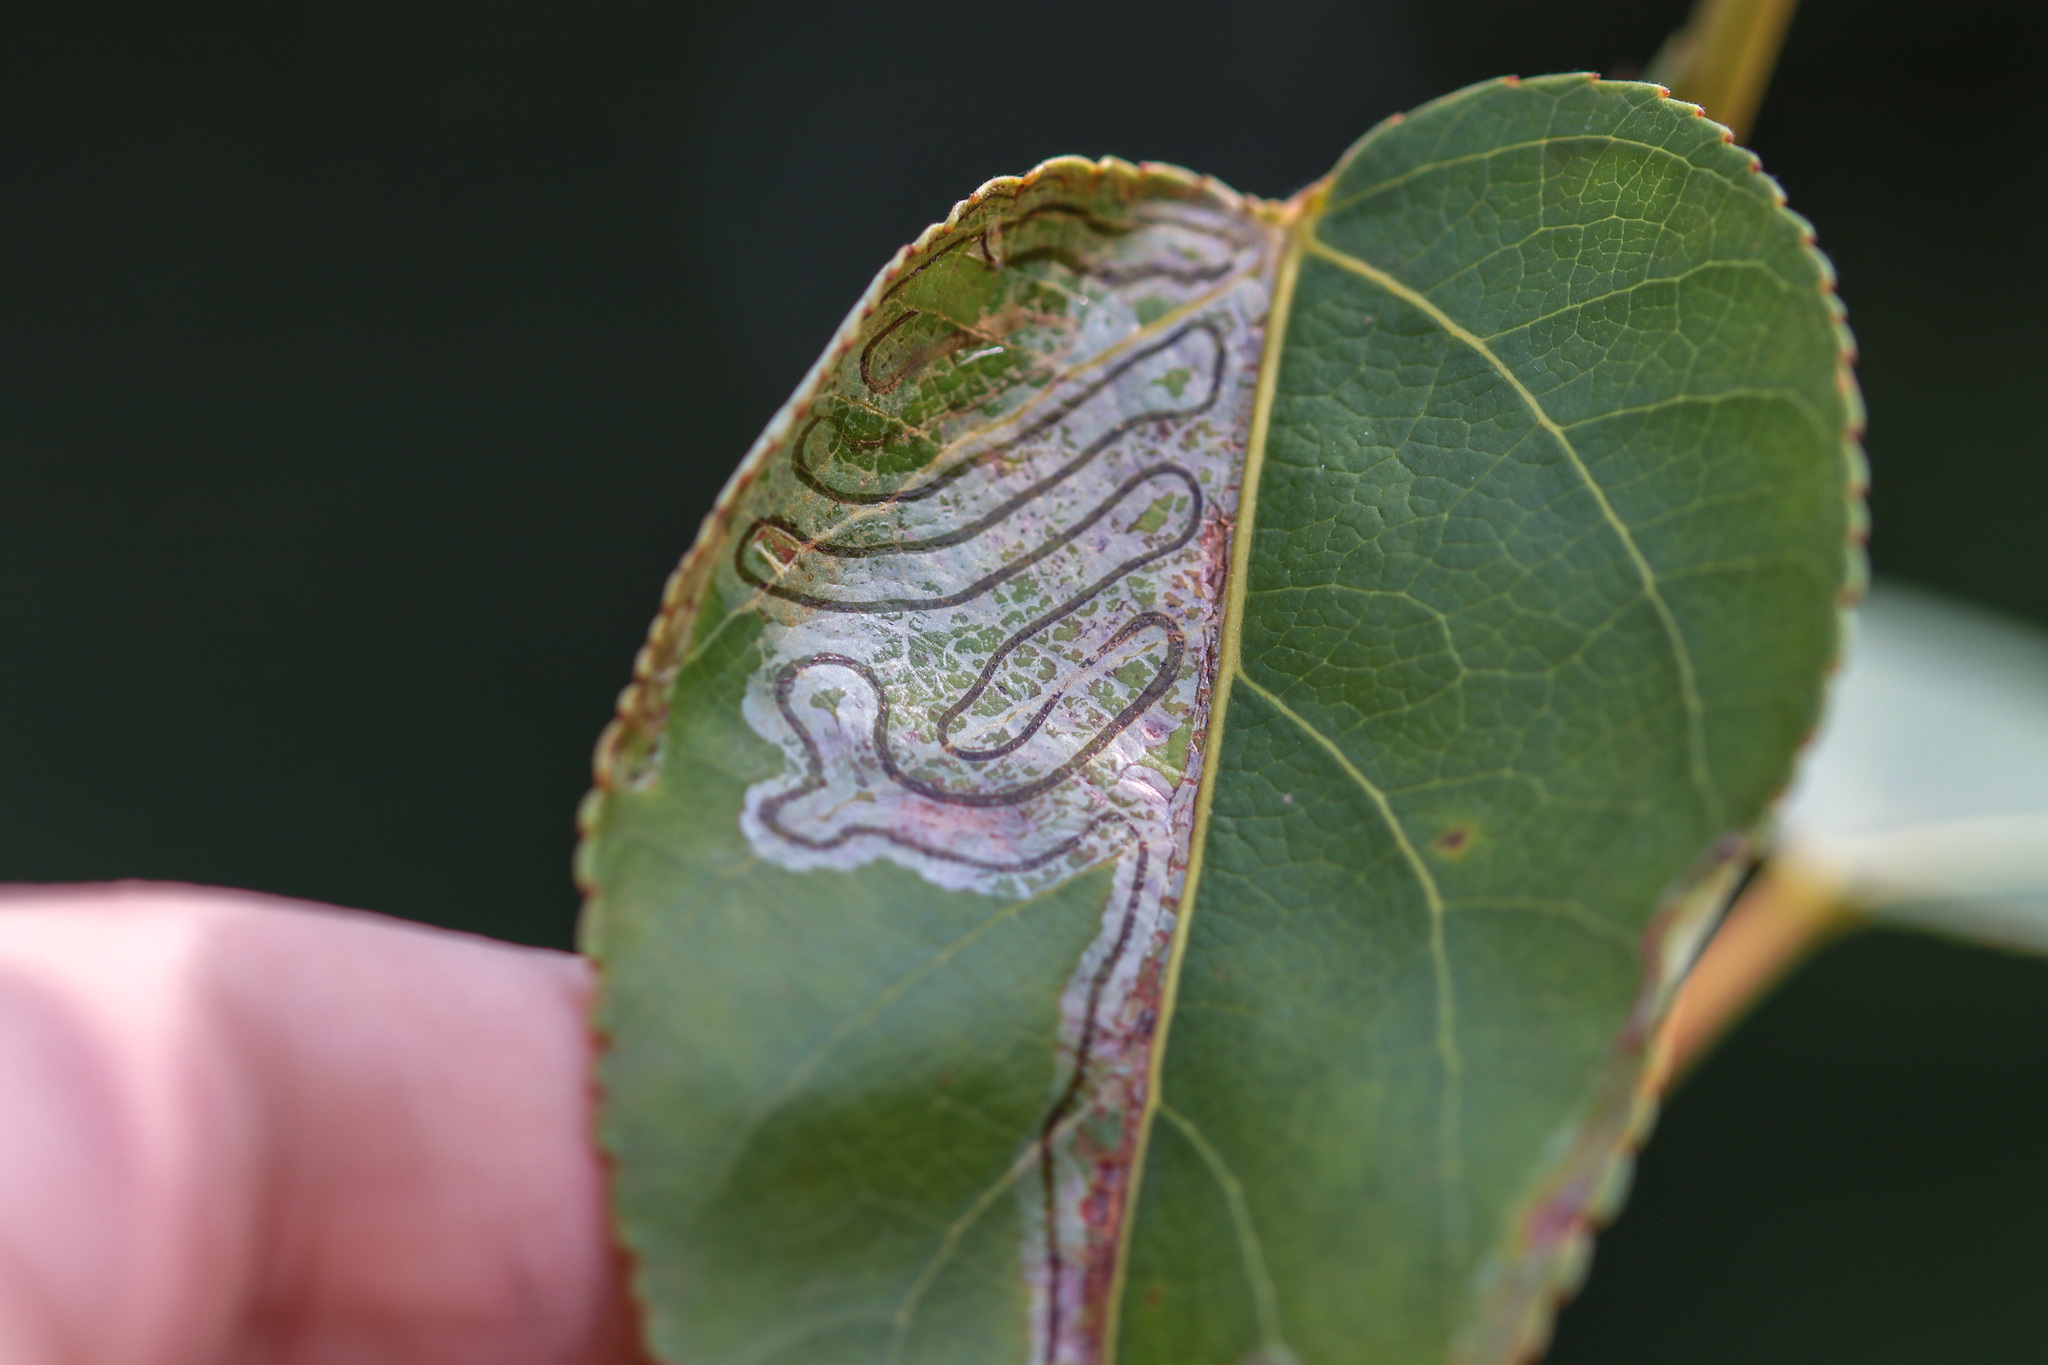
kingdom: Animalia
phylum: Arthropoda
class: Insecta
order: Lepidoptera
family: Gracillariidae
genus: Phyllocnistis
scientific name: Phyllocnistis populiella
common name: Aspen serpentine leafminer moth
